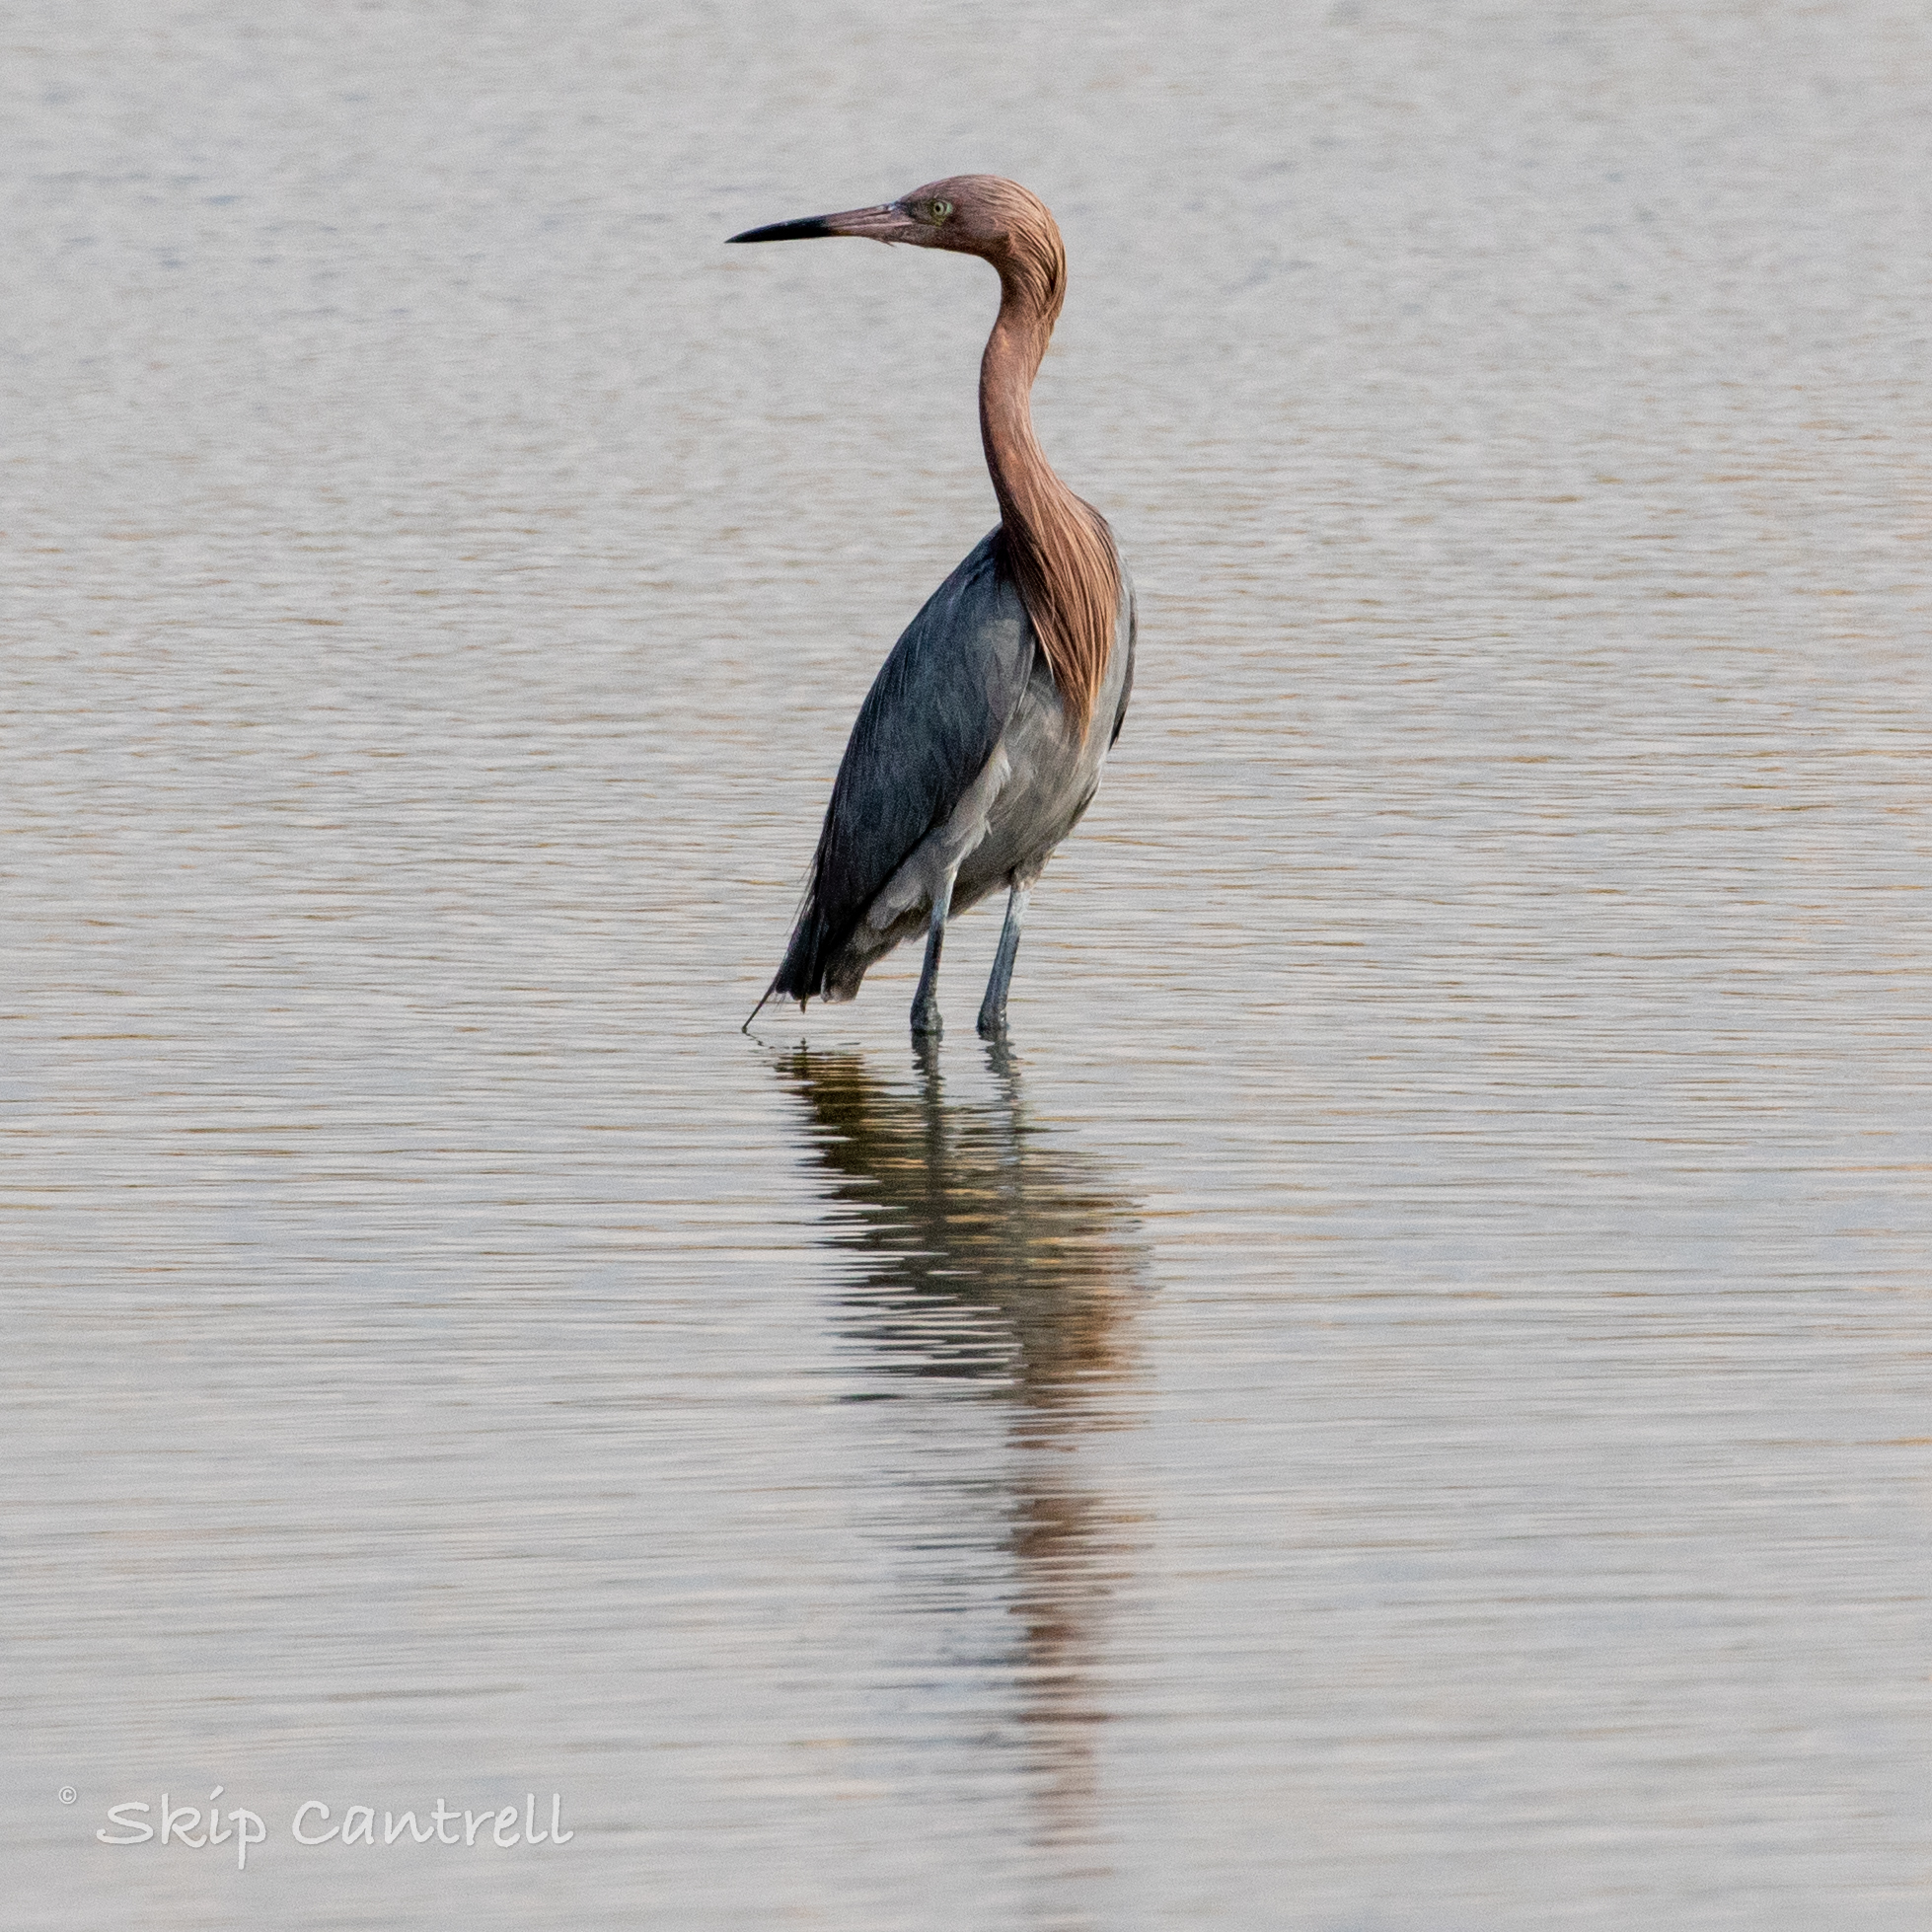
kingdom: Animalia
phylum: Chordata
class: Aves
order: Pelecaniformes
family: Ardeidae
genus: Egretta
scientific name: Egretta rufescens
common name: Reddish egret
